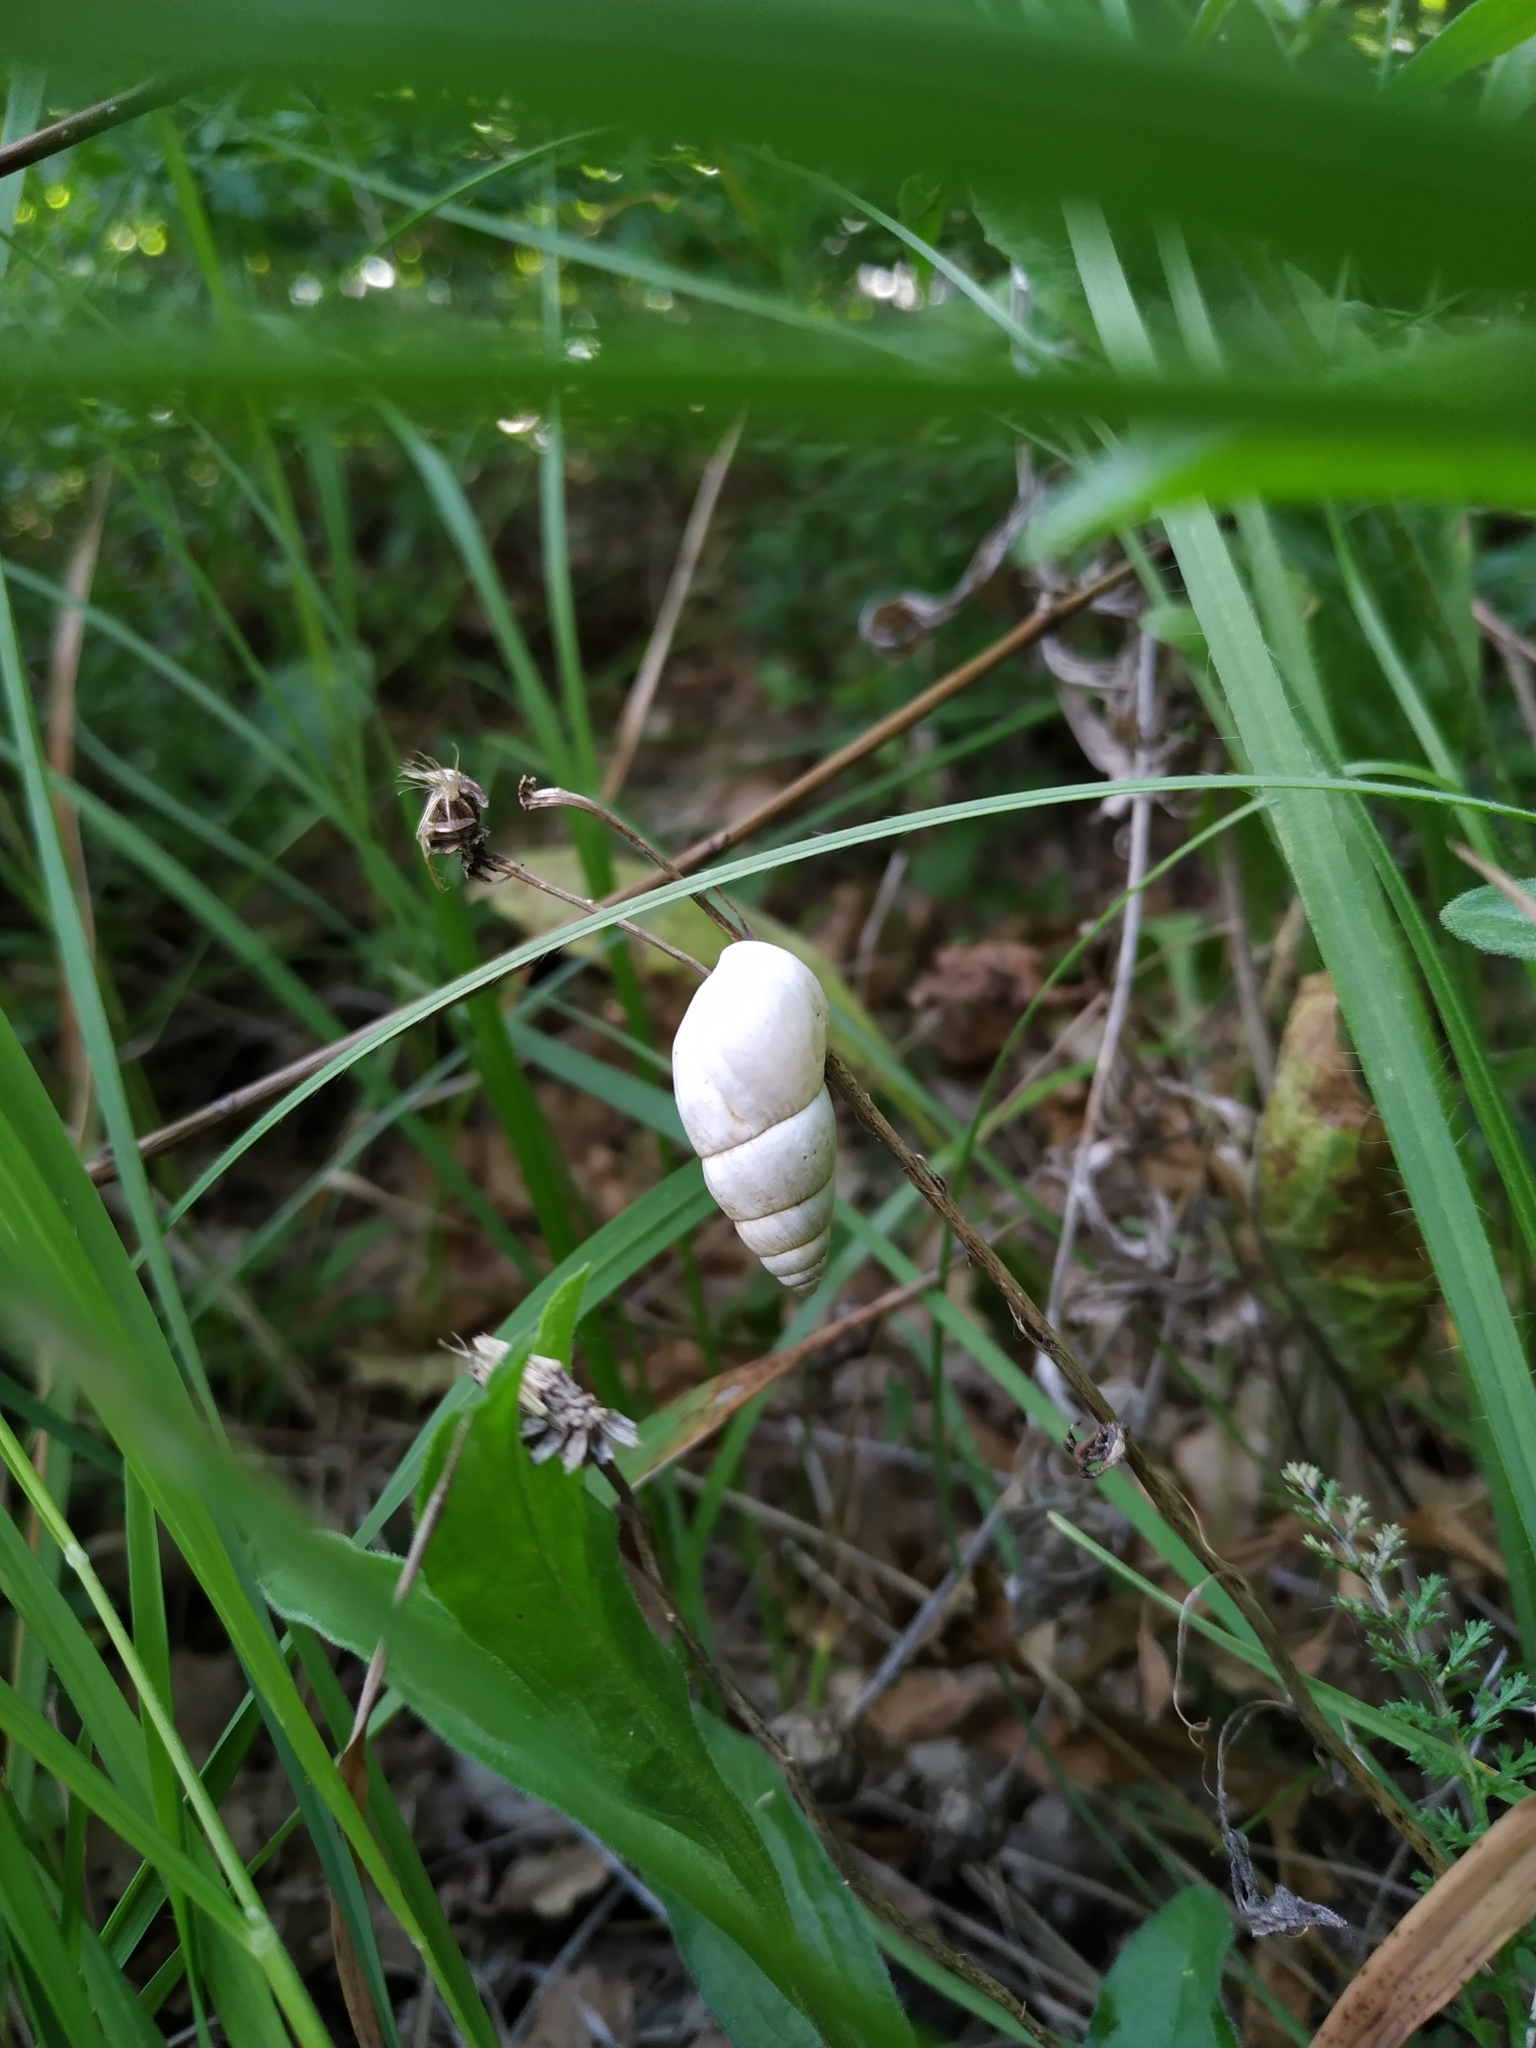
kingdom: Animalia
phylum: Mollusca
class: Gastropoda
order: Stylommatophora
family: Enidae
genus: Zebrina
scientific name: Zebrina detrita
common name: Large bulin
